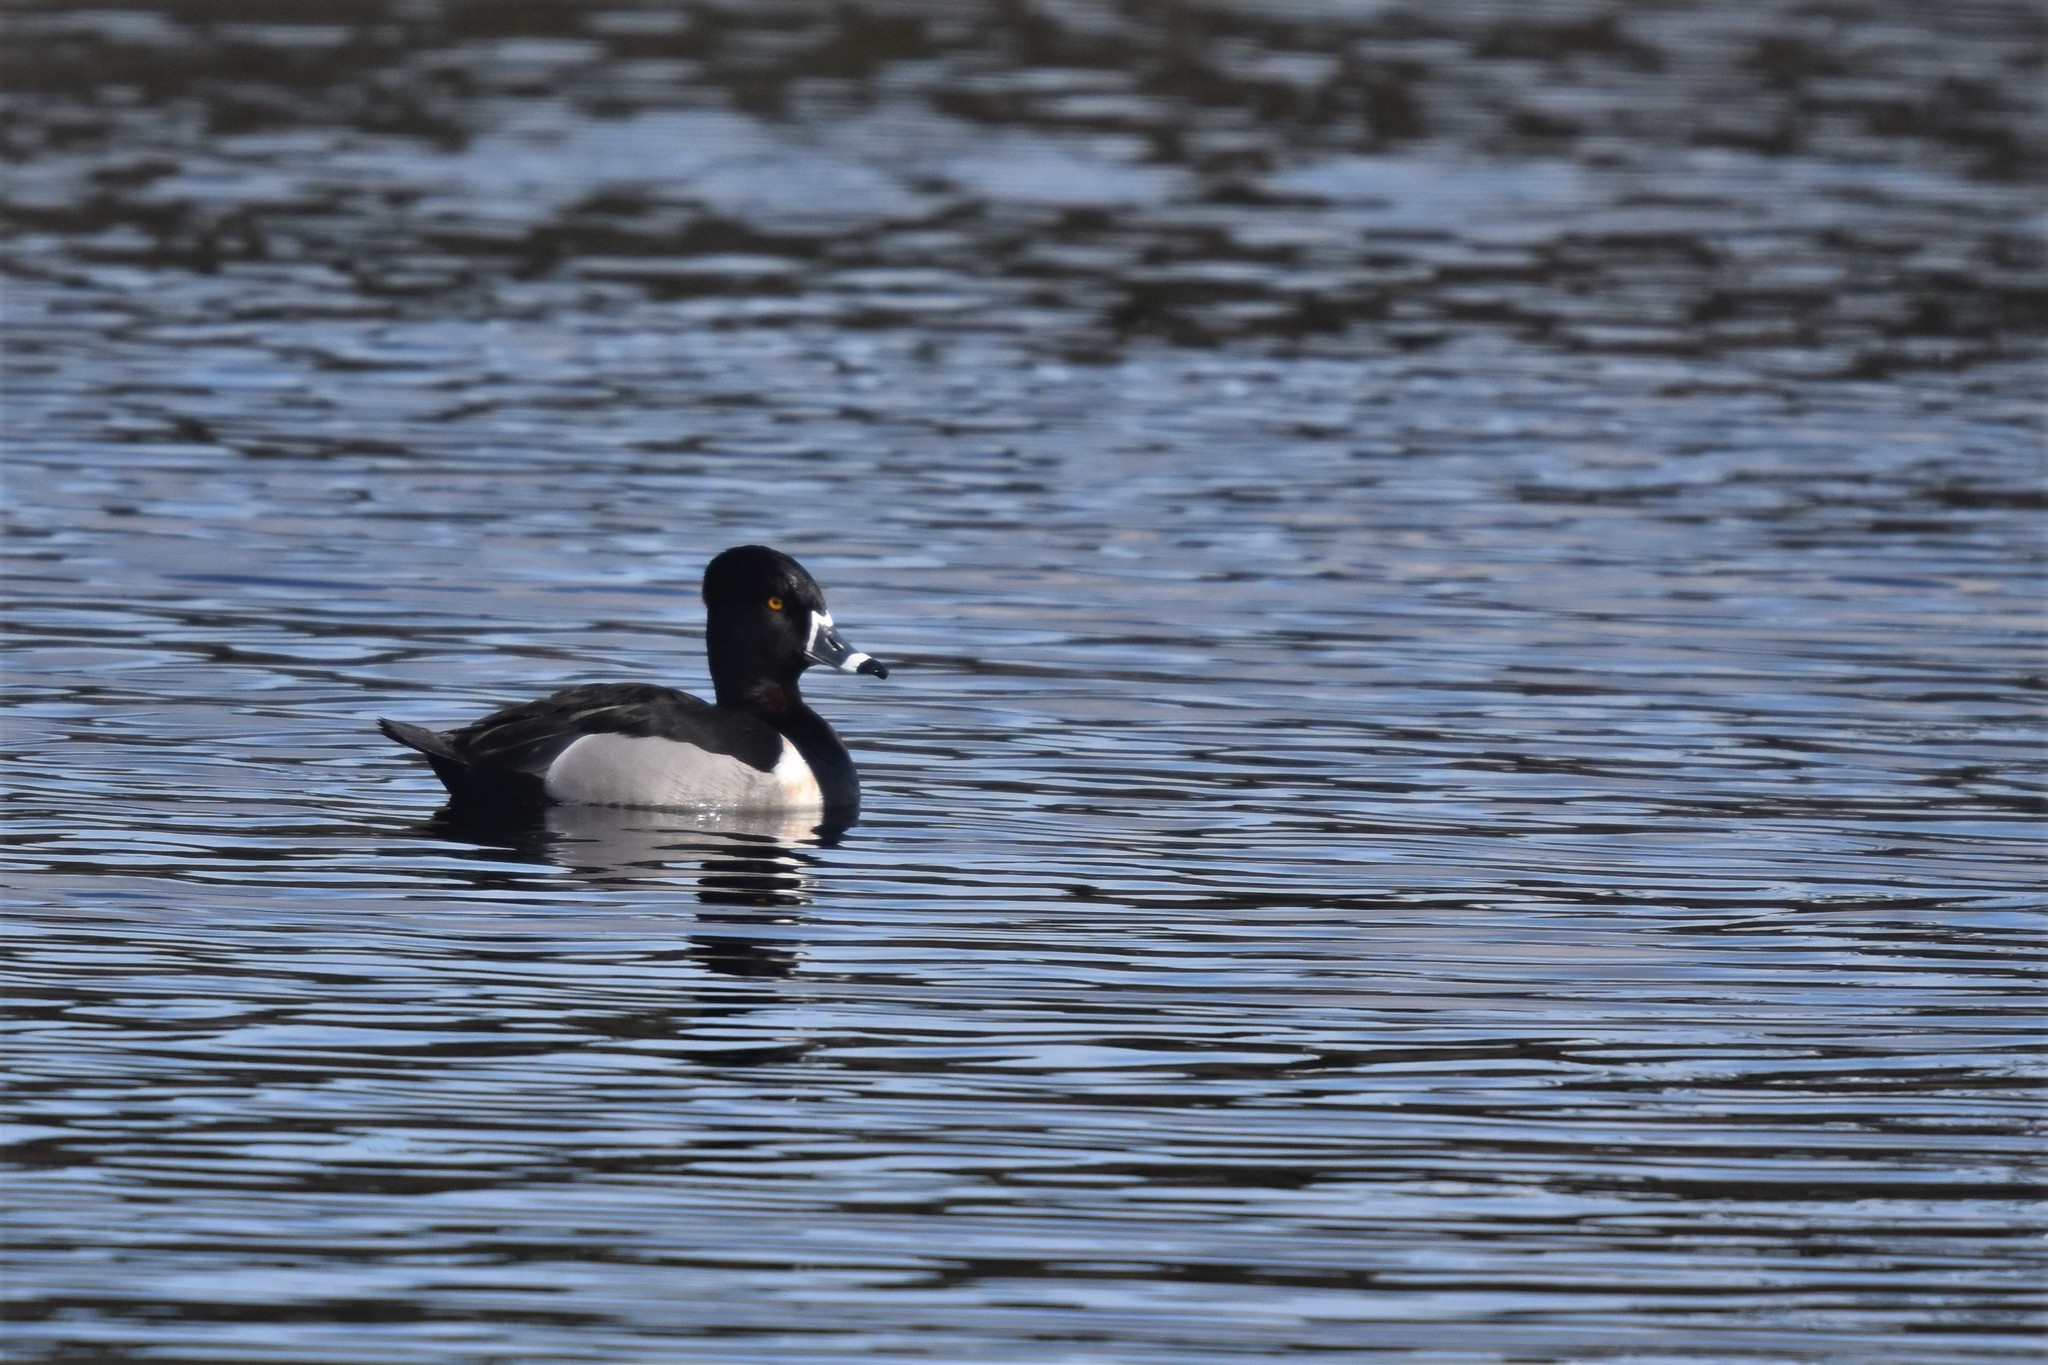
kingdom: Animalia
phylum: Chordata
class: Aves
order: Anseriformes
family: Anatidae
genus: Aythya
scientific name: Aythya collaris
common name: Ring-necked duck
